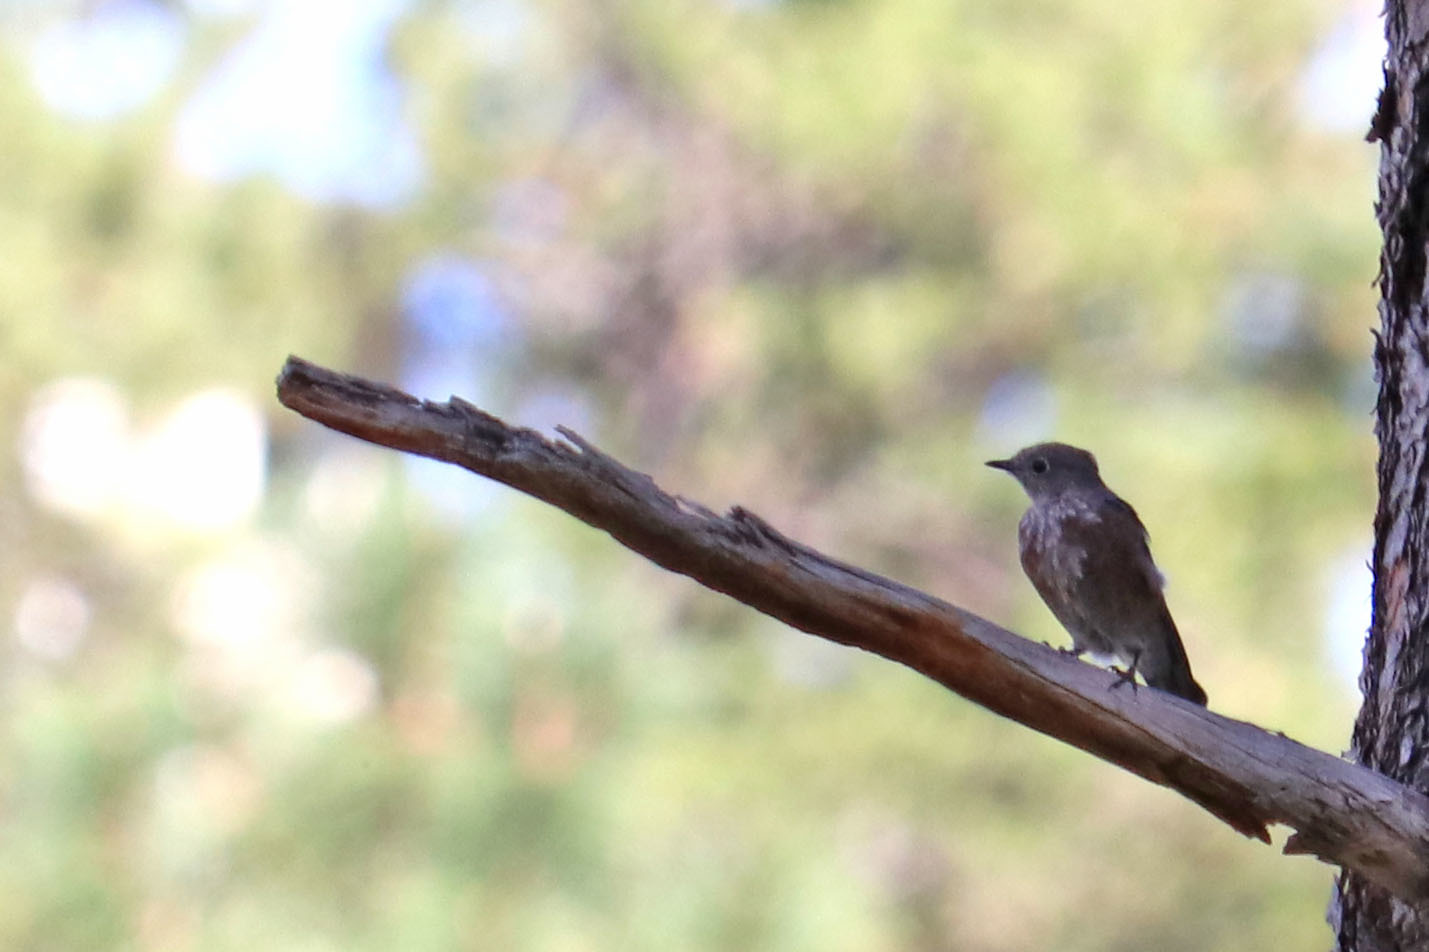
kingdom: Animalia
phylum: Chordata
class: Aves
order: Passeriformes
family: Turdidae
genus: Sialia
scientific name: Sialia mexicana
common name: Western bluebird
